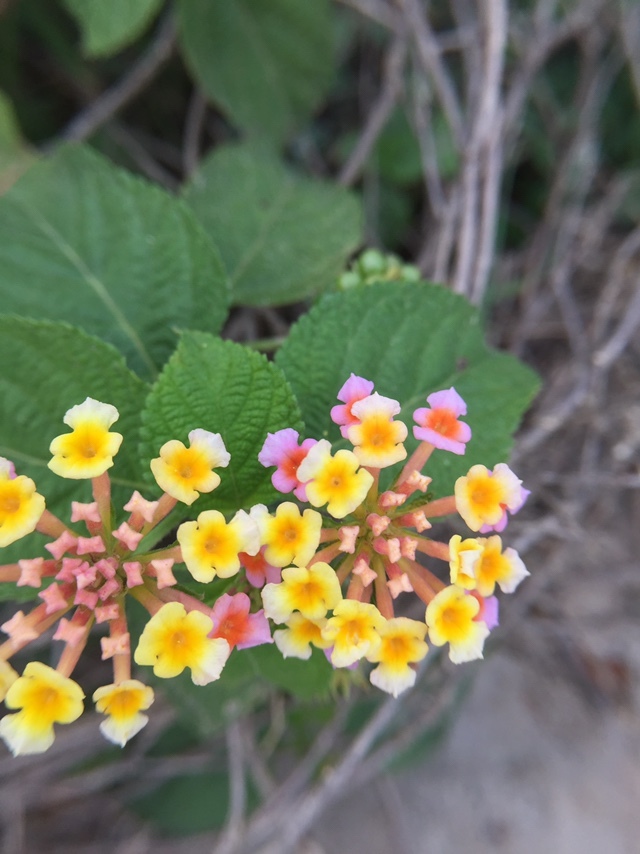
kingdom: Plantae
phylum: Tracheophyta
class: Magnoliopsida
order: Lamiales
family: Verbenaceae
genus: Lantana
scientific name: Lantana camara
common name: Lantana
